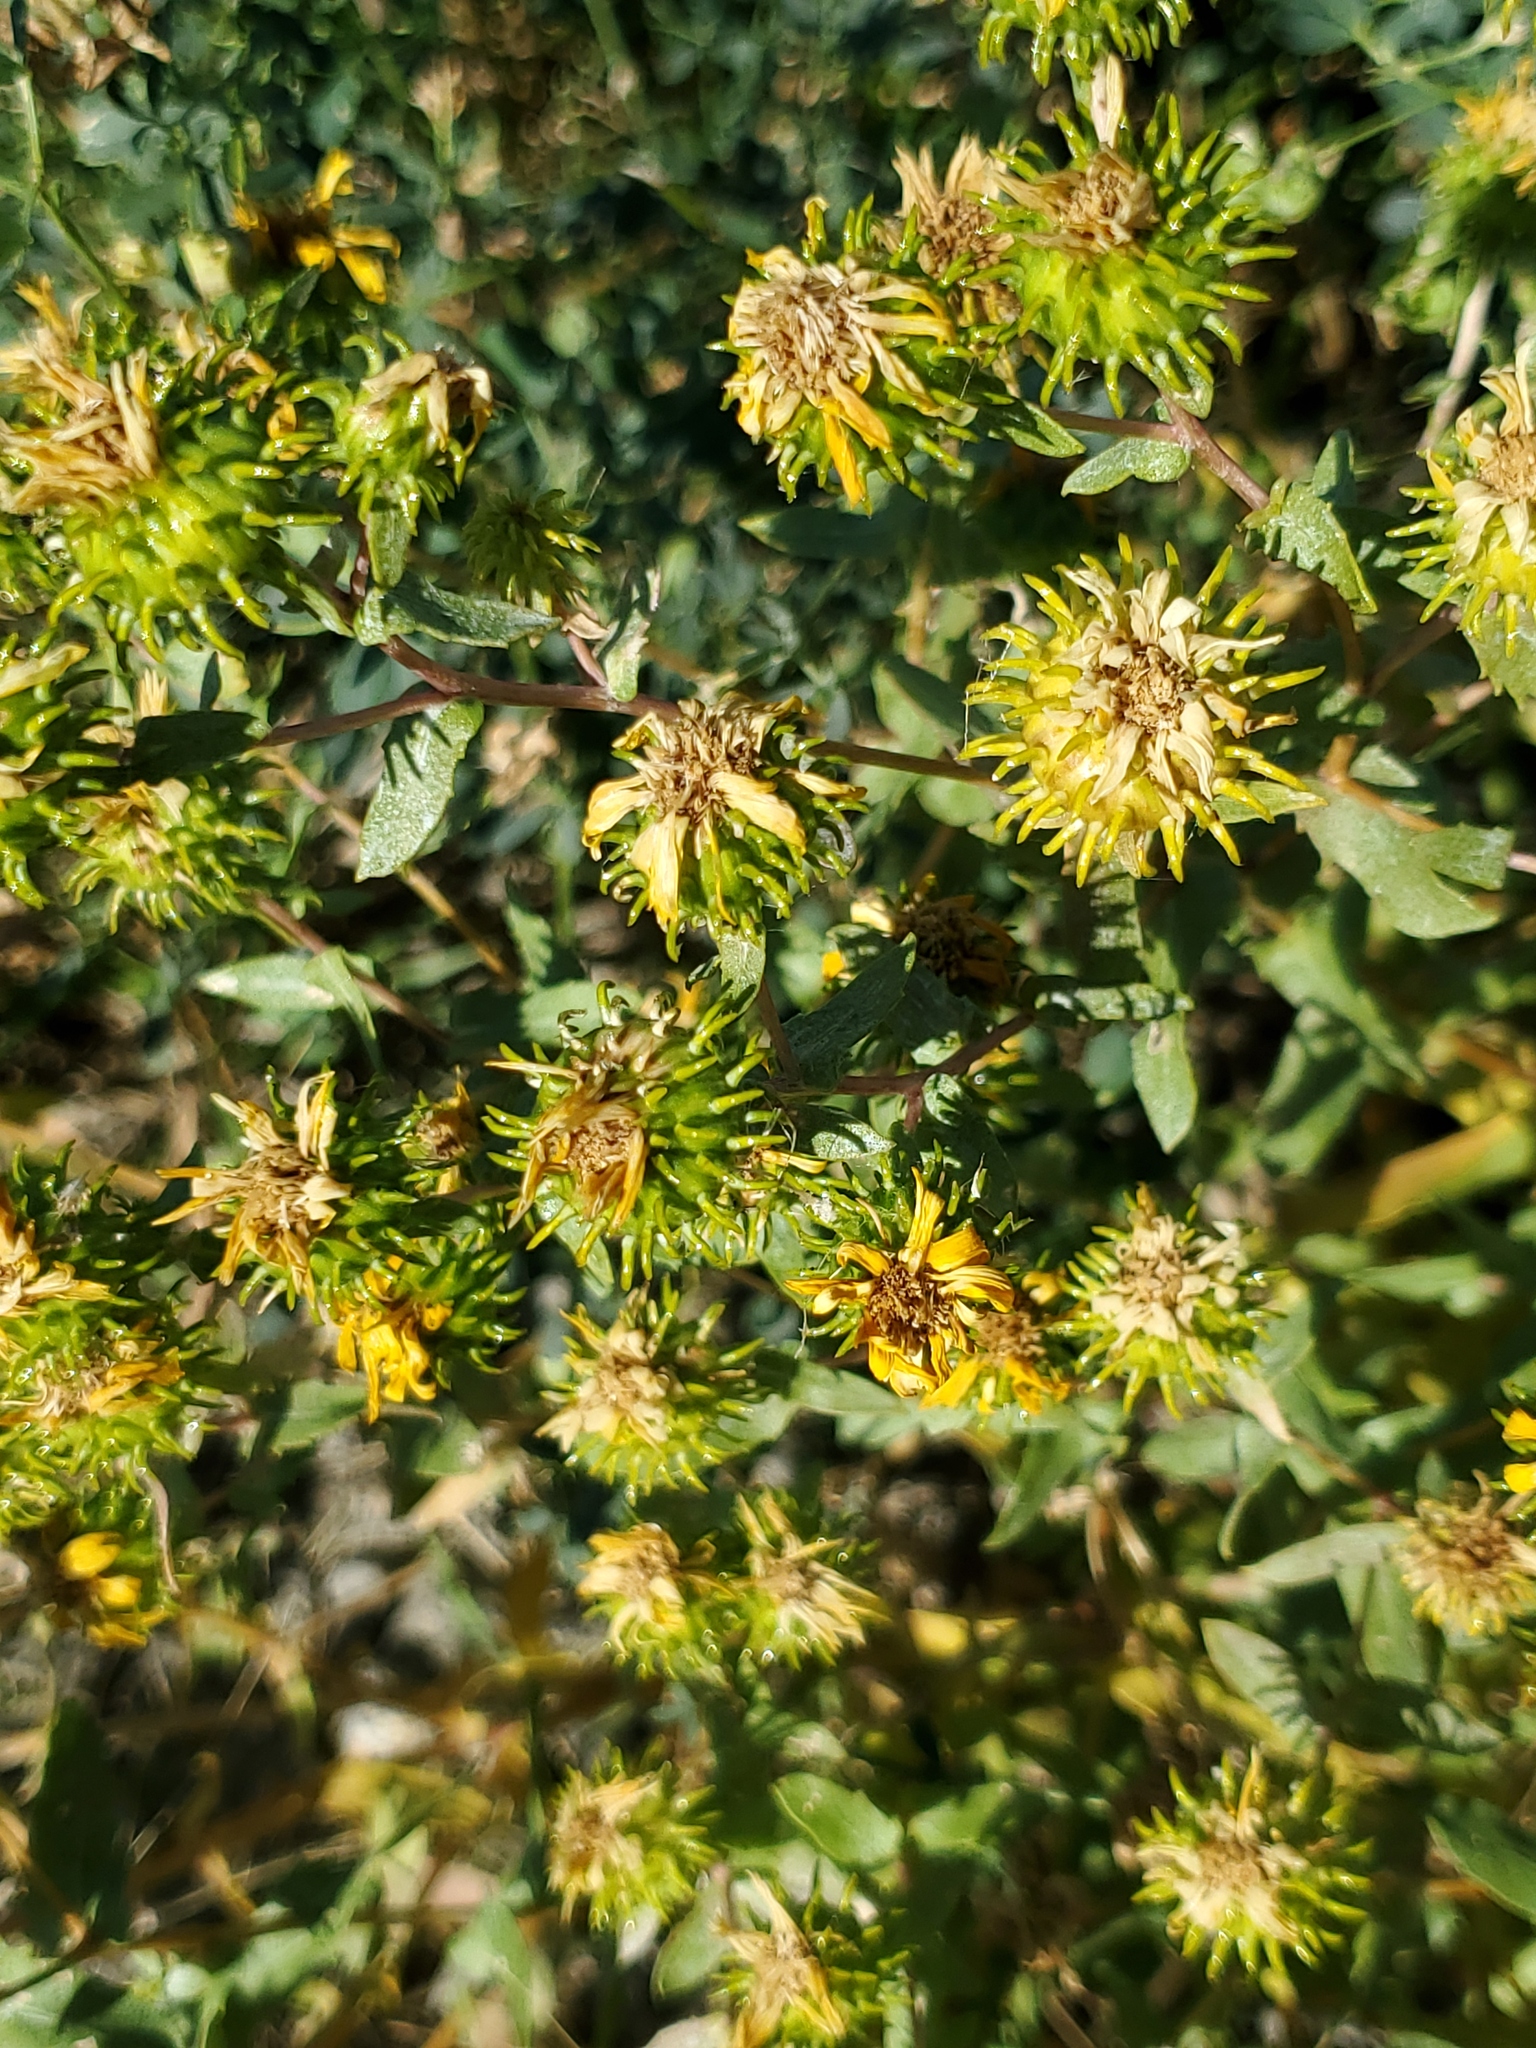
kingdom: Plantae
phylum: Tracheophyta
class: Magnoliopsida
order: Asterales
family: Asteraceae
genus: Grindelia
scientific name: Grindelia squarrosa
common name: Curly-cup gumweed
